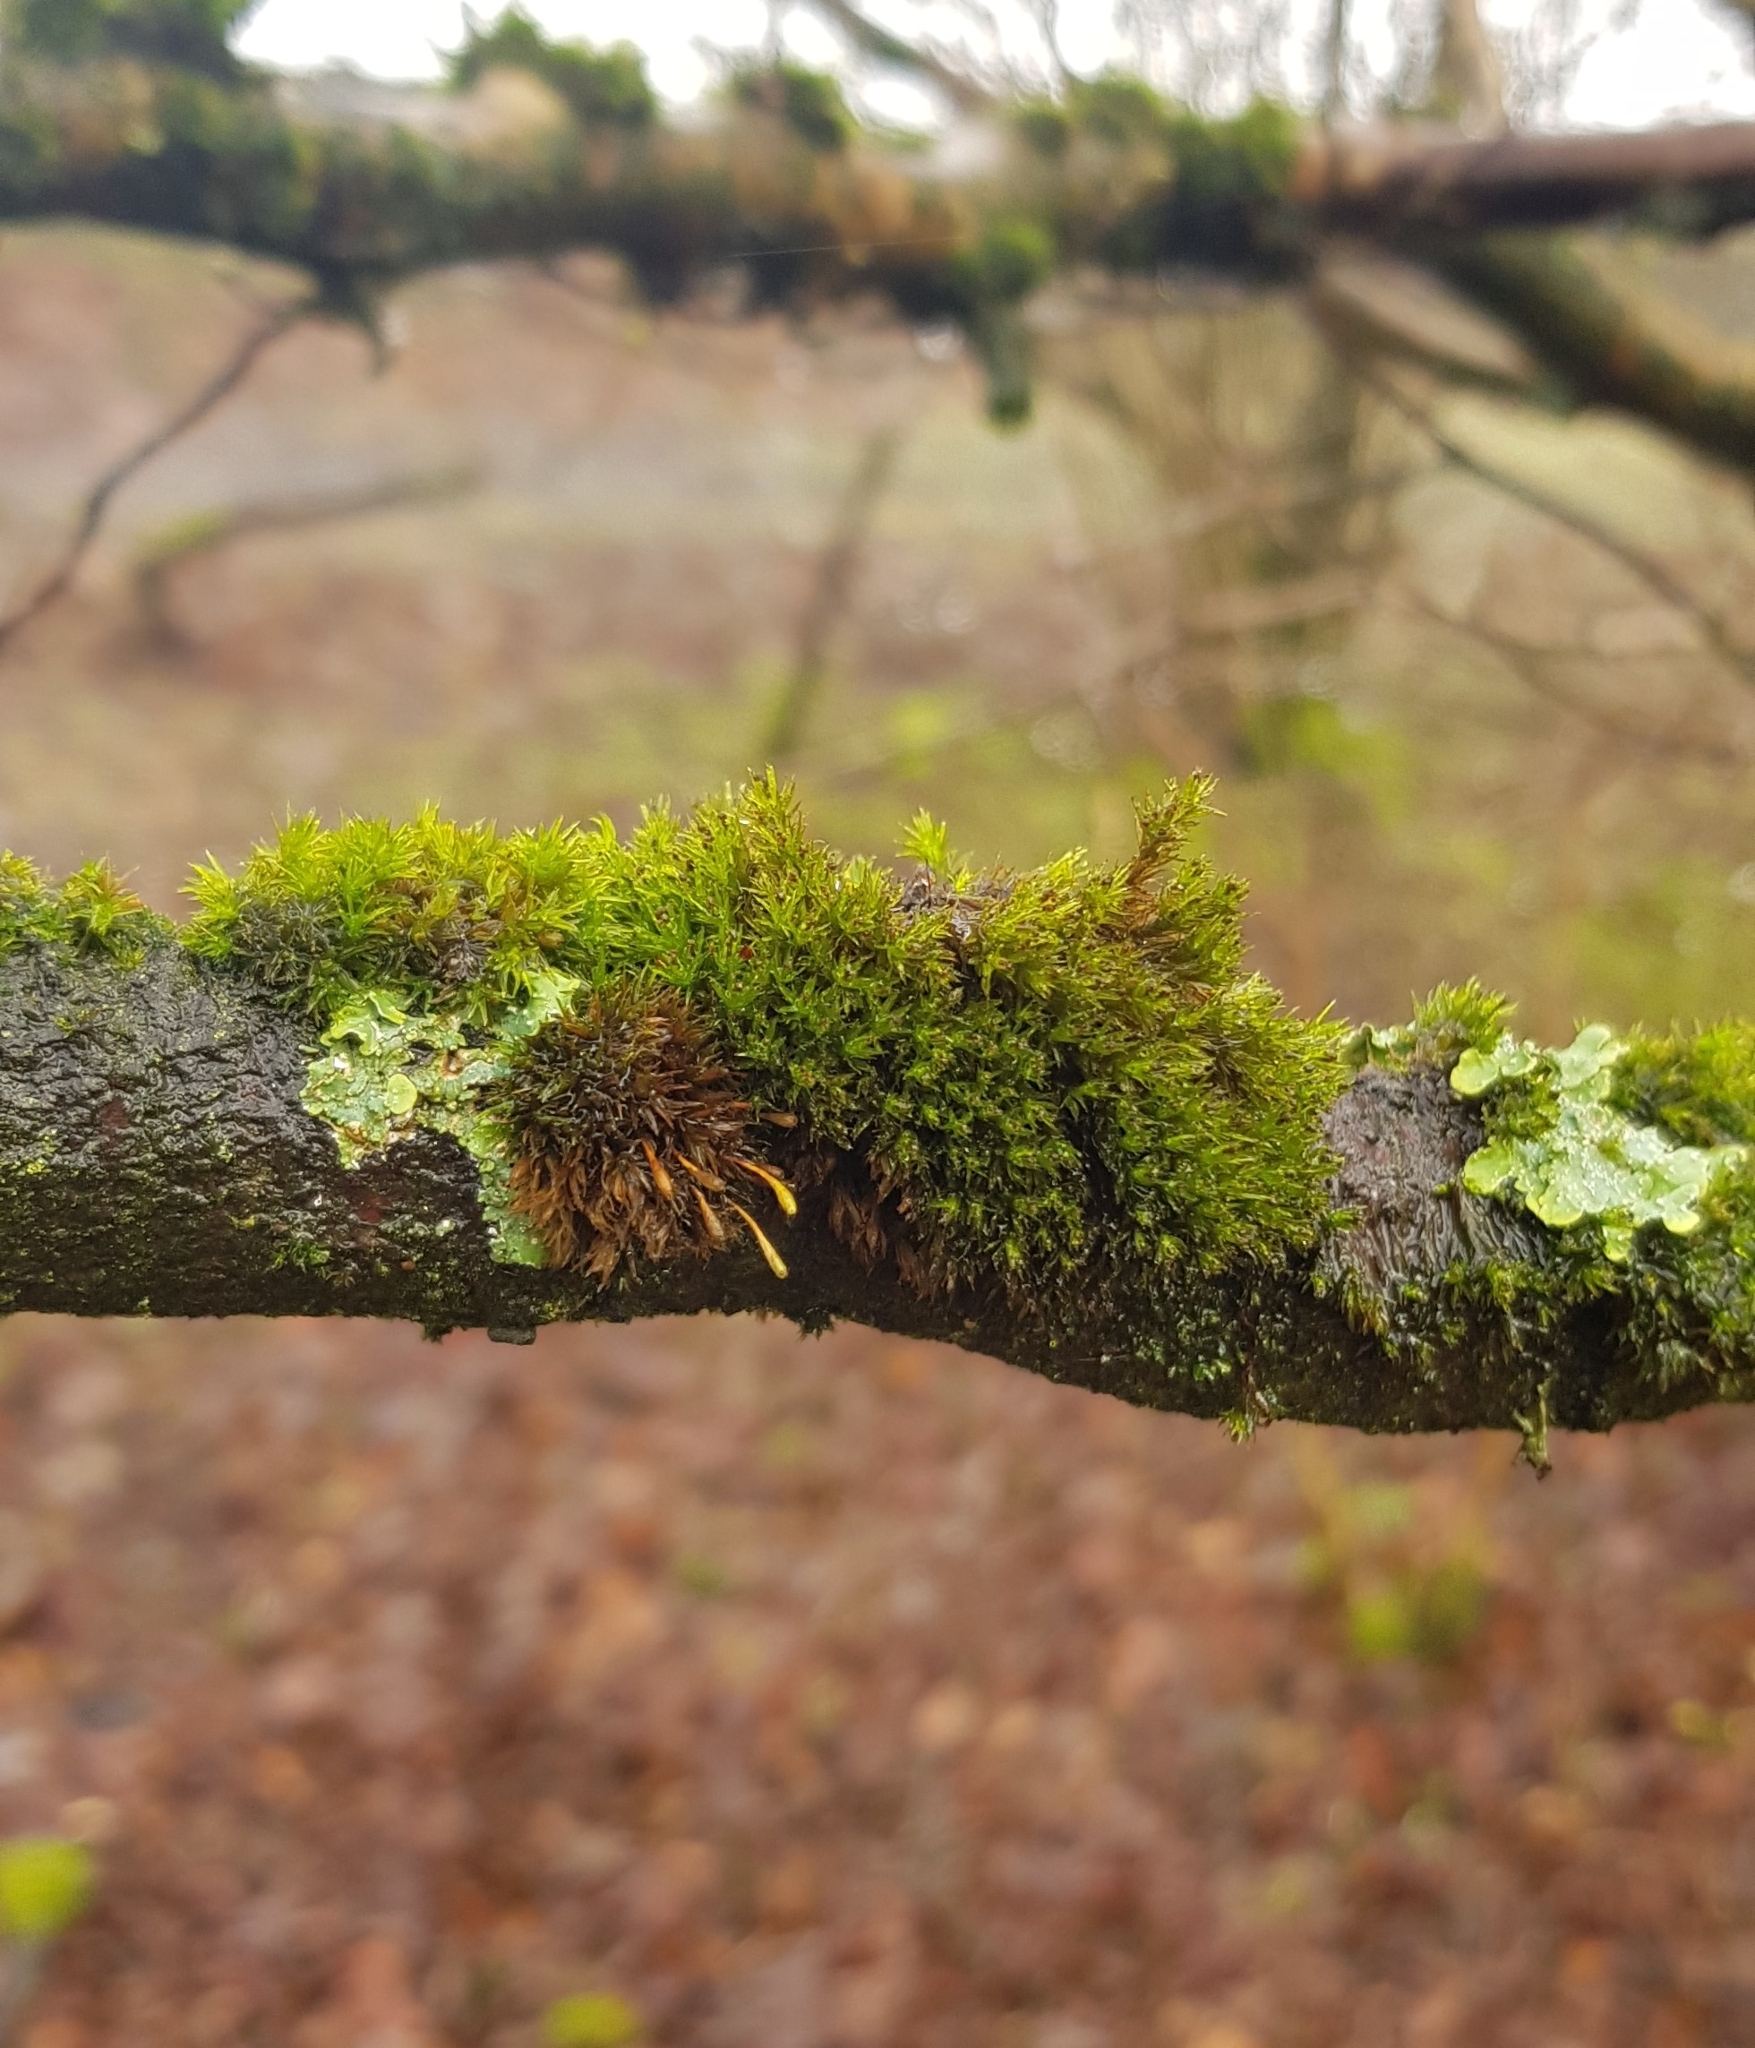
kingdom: Plantae
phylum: Bryophyta
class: Bryopsida
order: Orthotrichales
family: Orthotrichaceae
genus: Plenogemma
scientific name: Plenogemma phyllantha
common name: Frizzled pincushion
